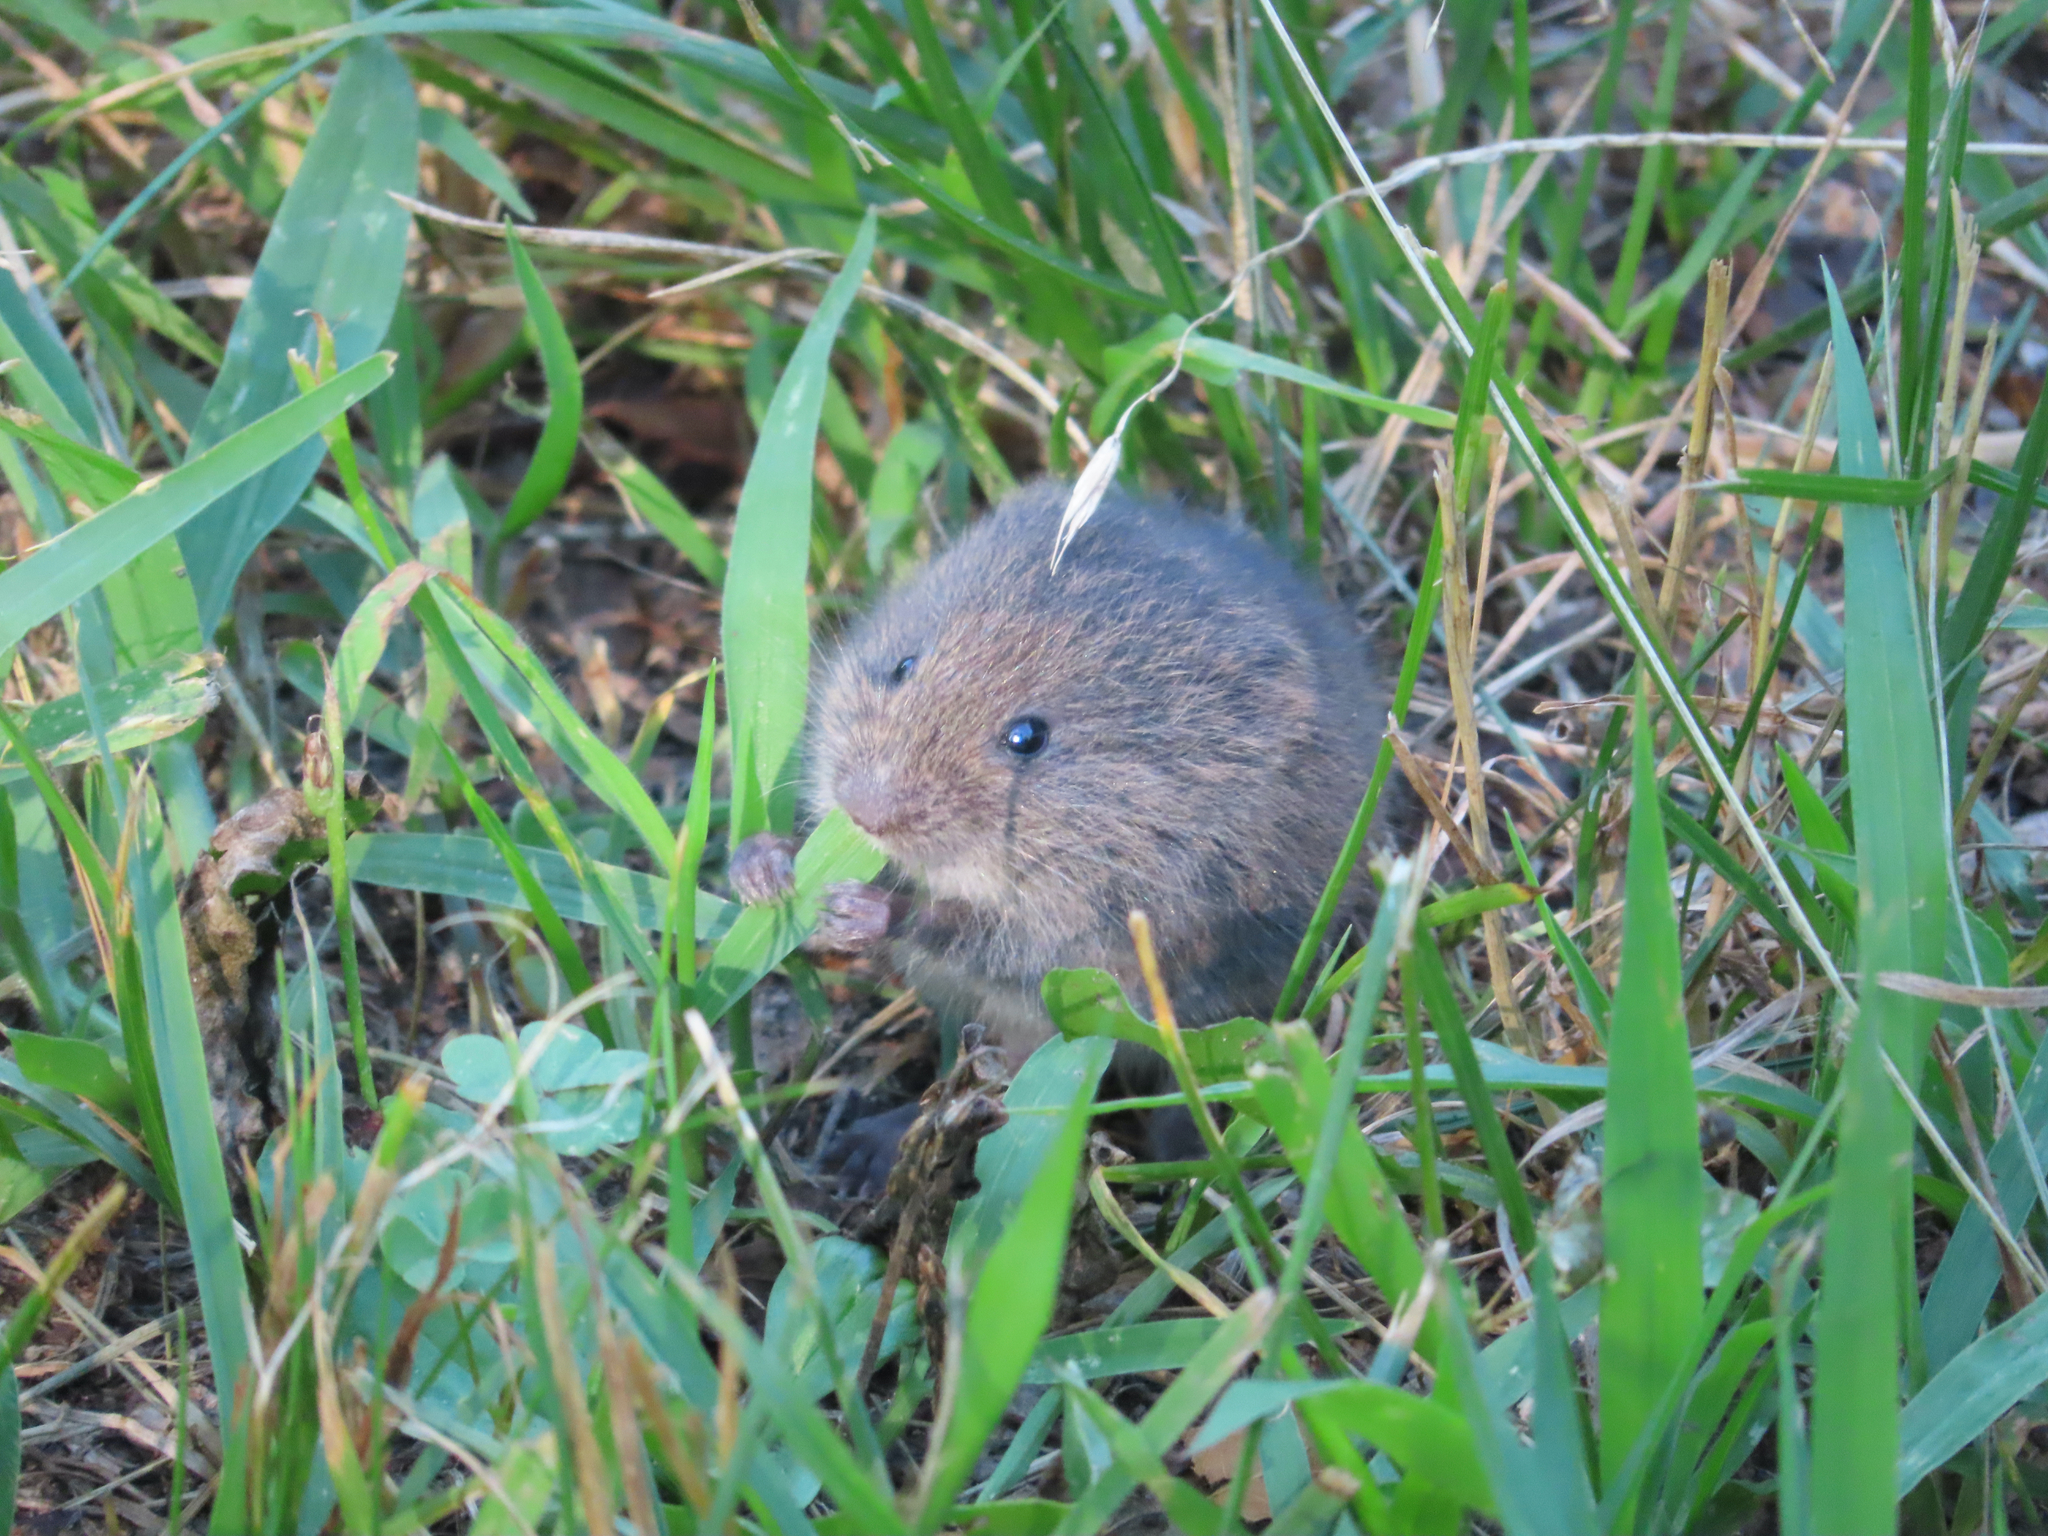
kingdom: Animalia
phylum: Chordata
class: Mammalia
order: Rodentia
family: Cricetidae
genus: Microtus
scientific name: Microtus pennsylvanicus
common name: Meadow vole
